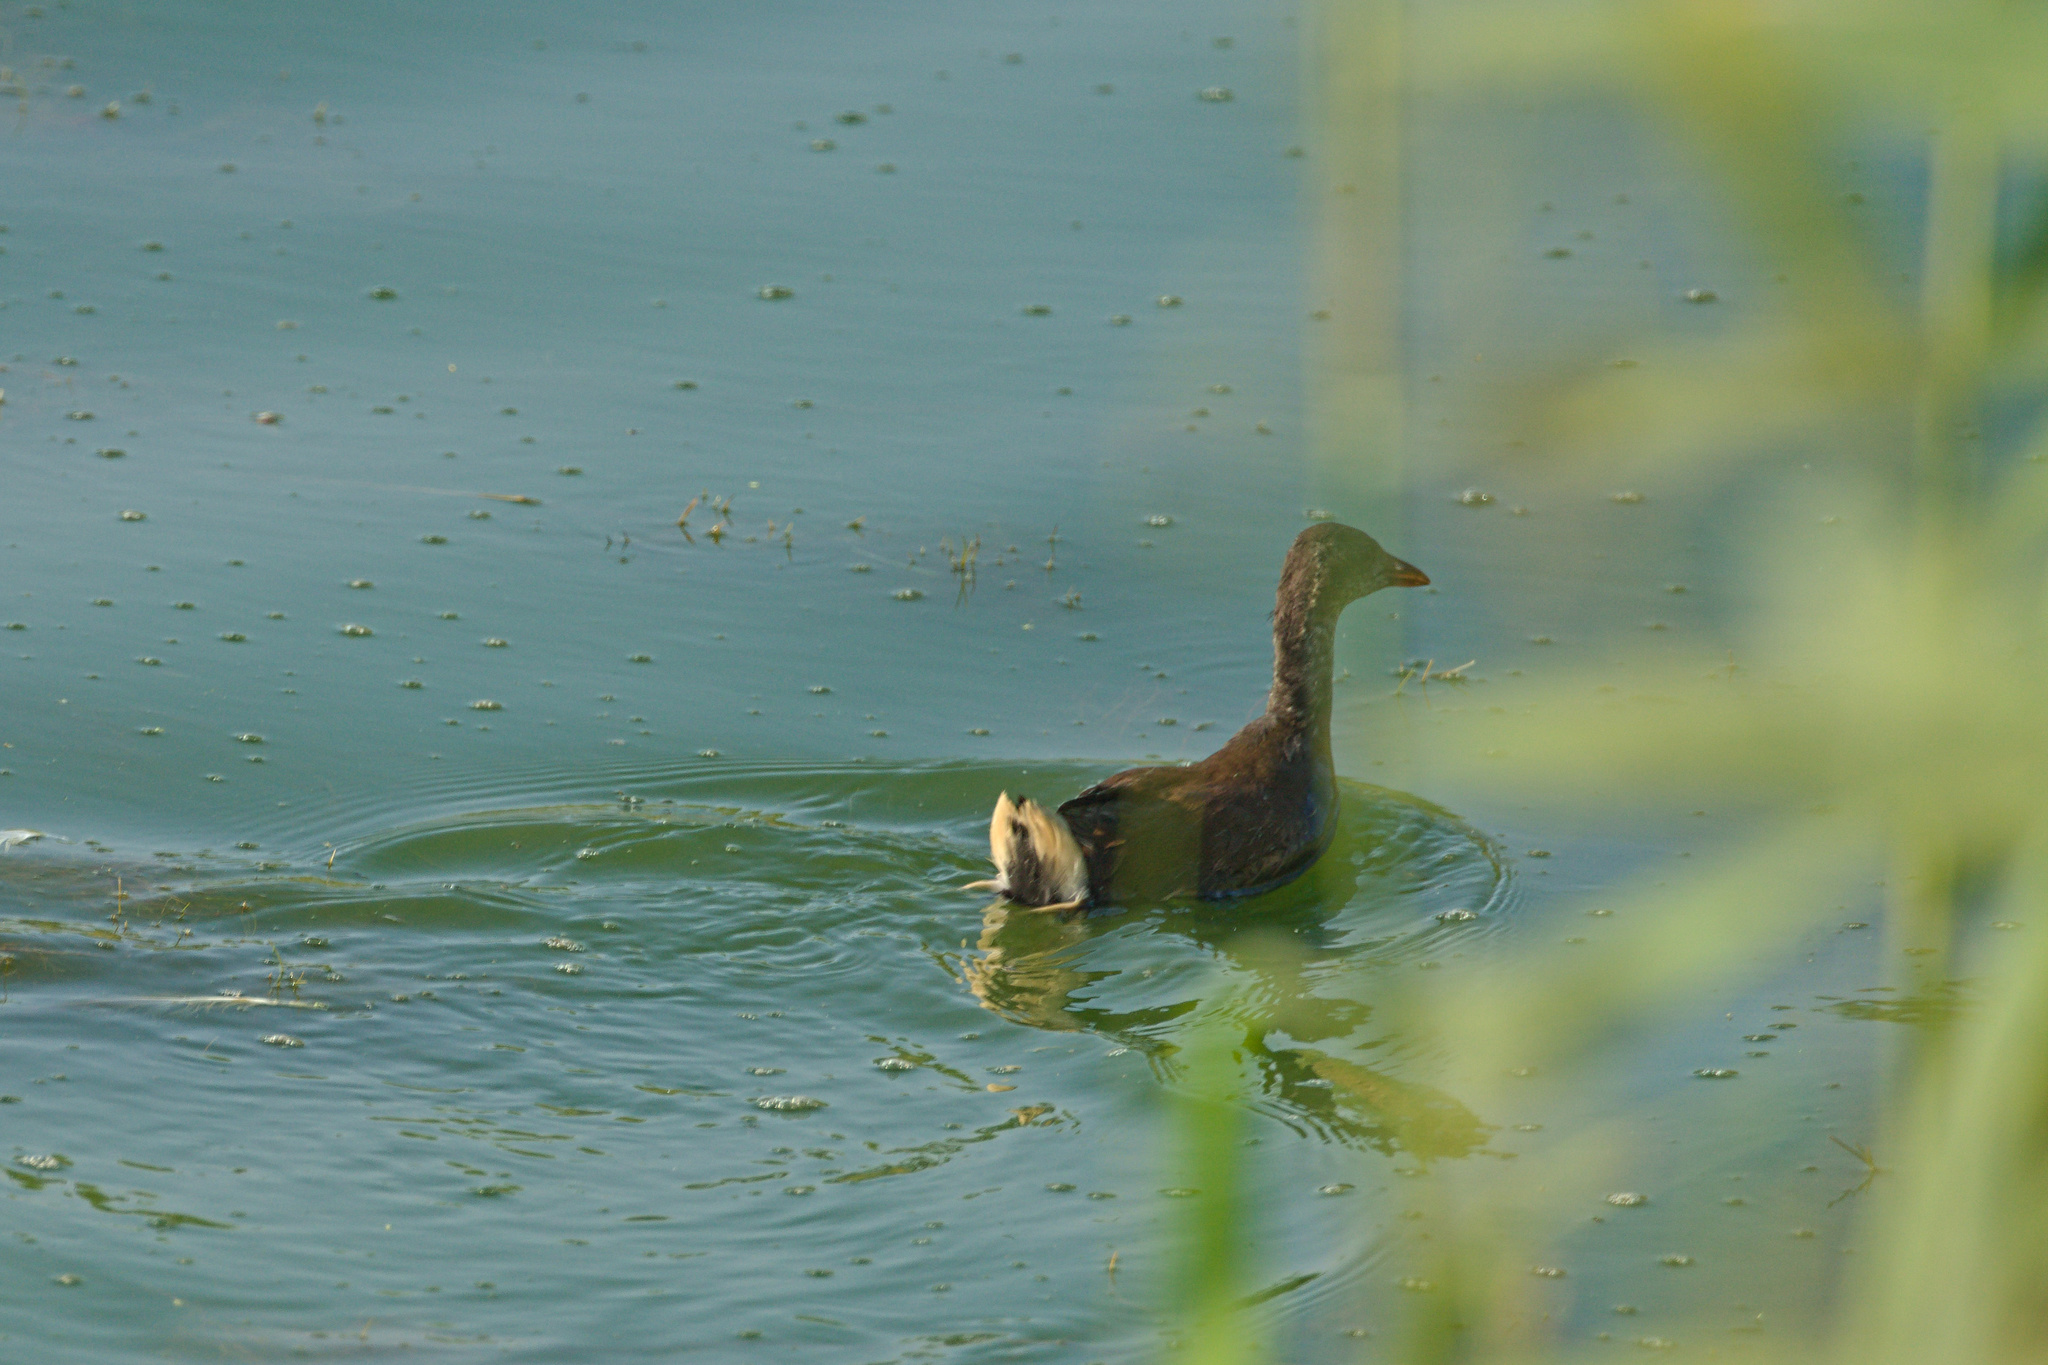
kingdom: Animalia
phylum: Chordata
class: Aves
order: Gruiformes
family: Rallidae
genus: Gallinula
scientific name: Gallinula chloropus
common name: Common moorhen
